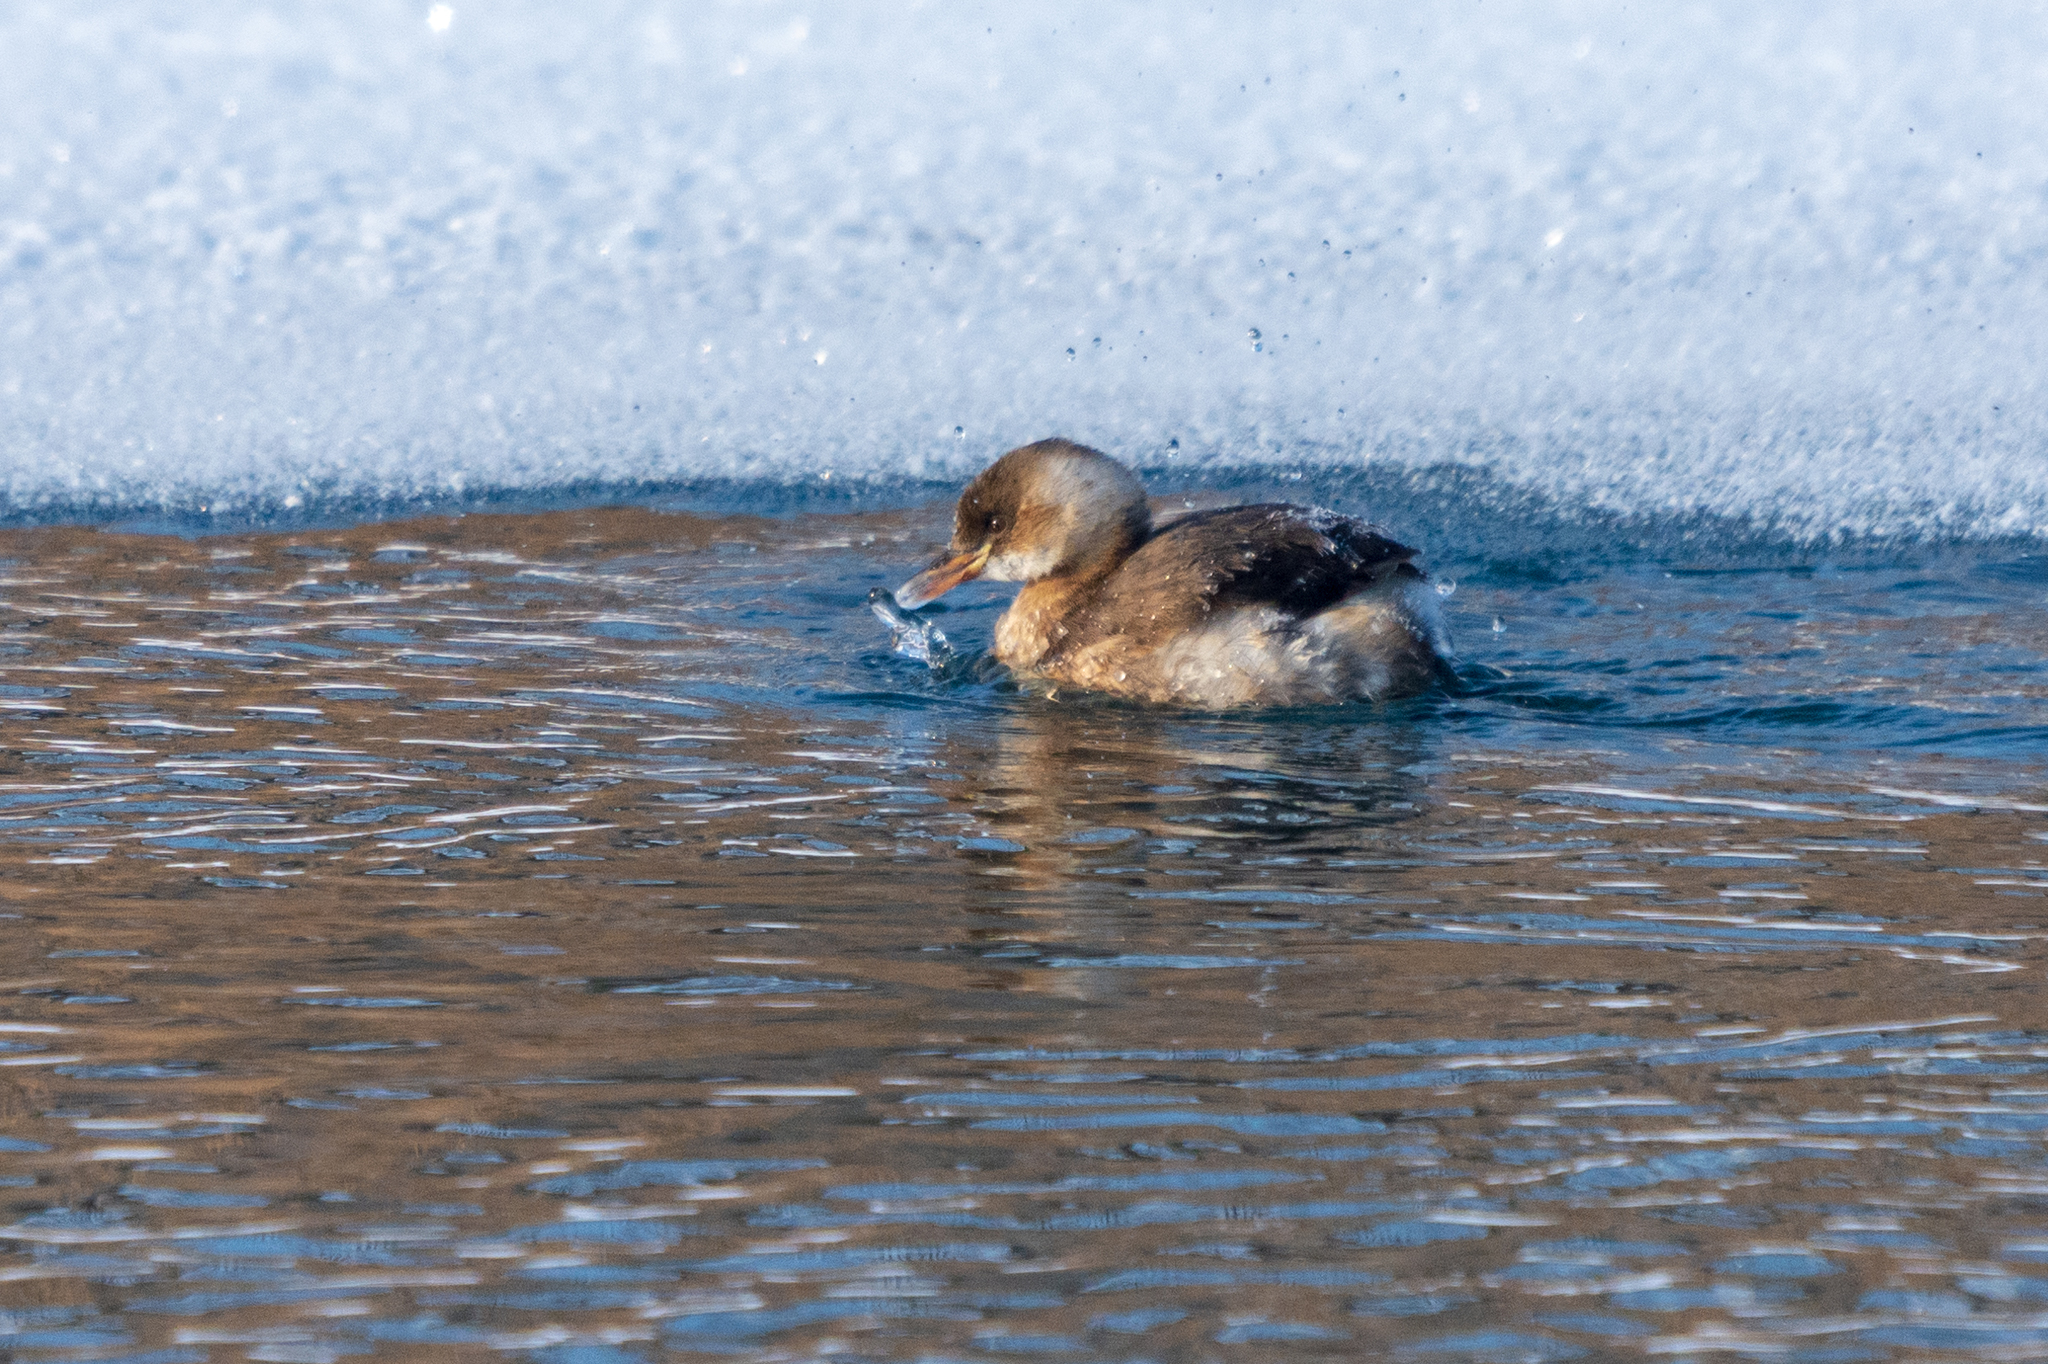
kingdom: Animalia
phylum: Chordata
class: Aves
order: Podicipediformes
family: Podicipedidae
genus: Tachybaptus
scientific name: Tachybaptus ruficollis
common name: Little grebe
